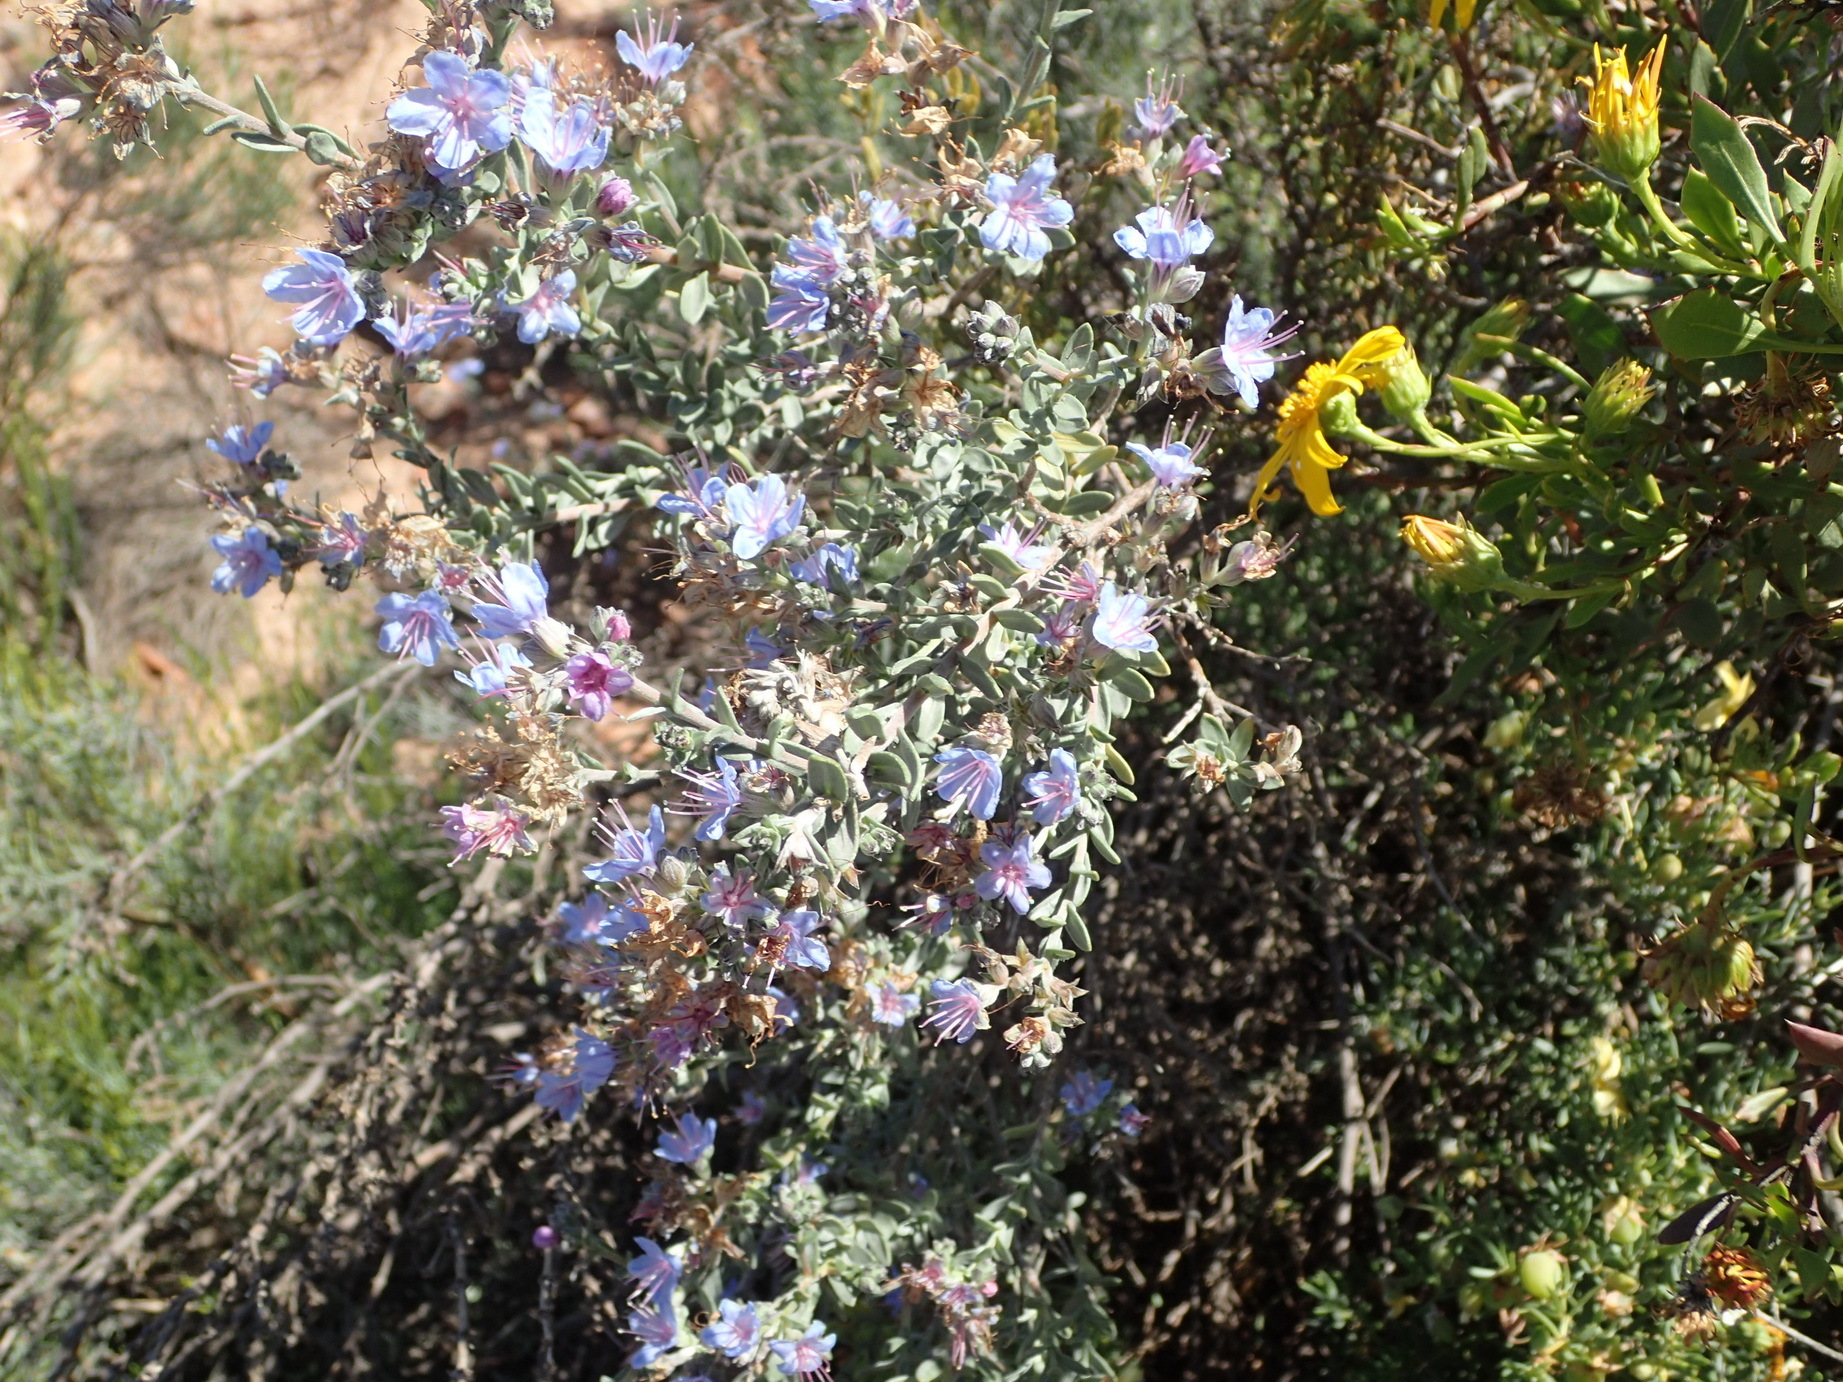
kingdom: Plantae
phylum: Tracheophyta
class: Magnoliopsida
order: Boraginales
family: Boraginaceae
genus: Lobostemon
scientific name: Lobostemon echioides
